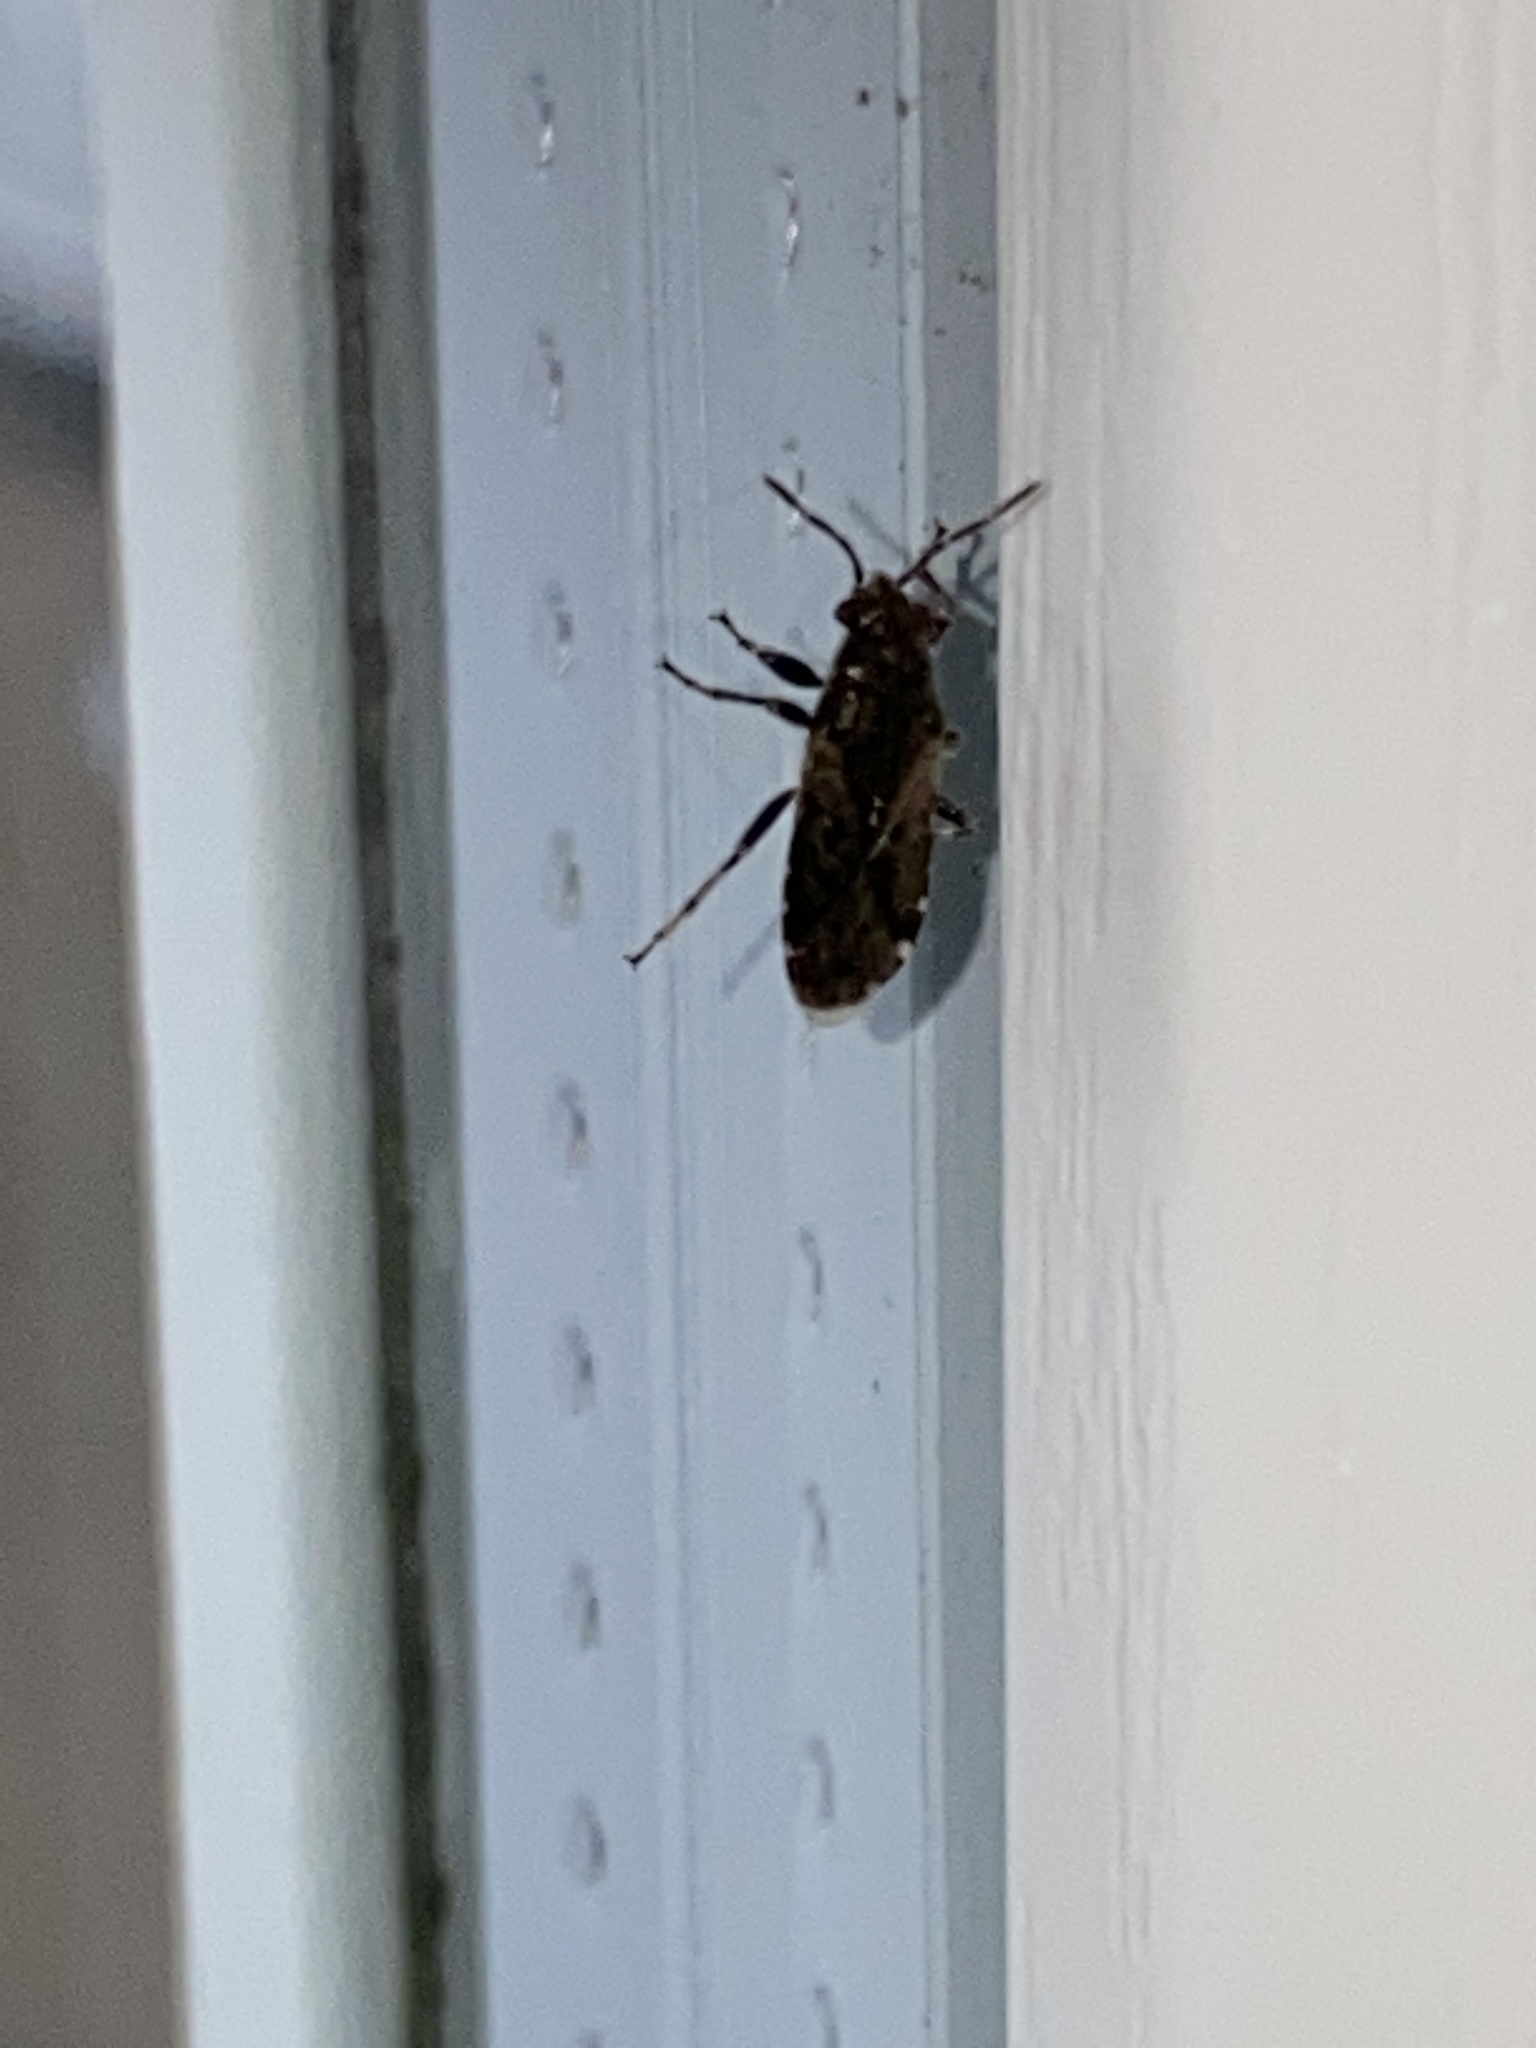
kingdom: Animalia
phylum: Arthropoda
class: Insecta
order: Hemiptera
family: Heterogastridae
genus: Heterogaster
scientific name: Heterogaster urticae
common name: Seed bug
